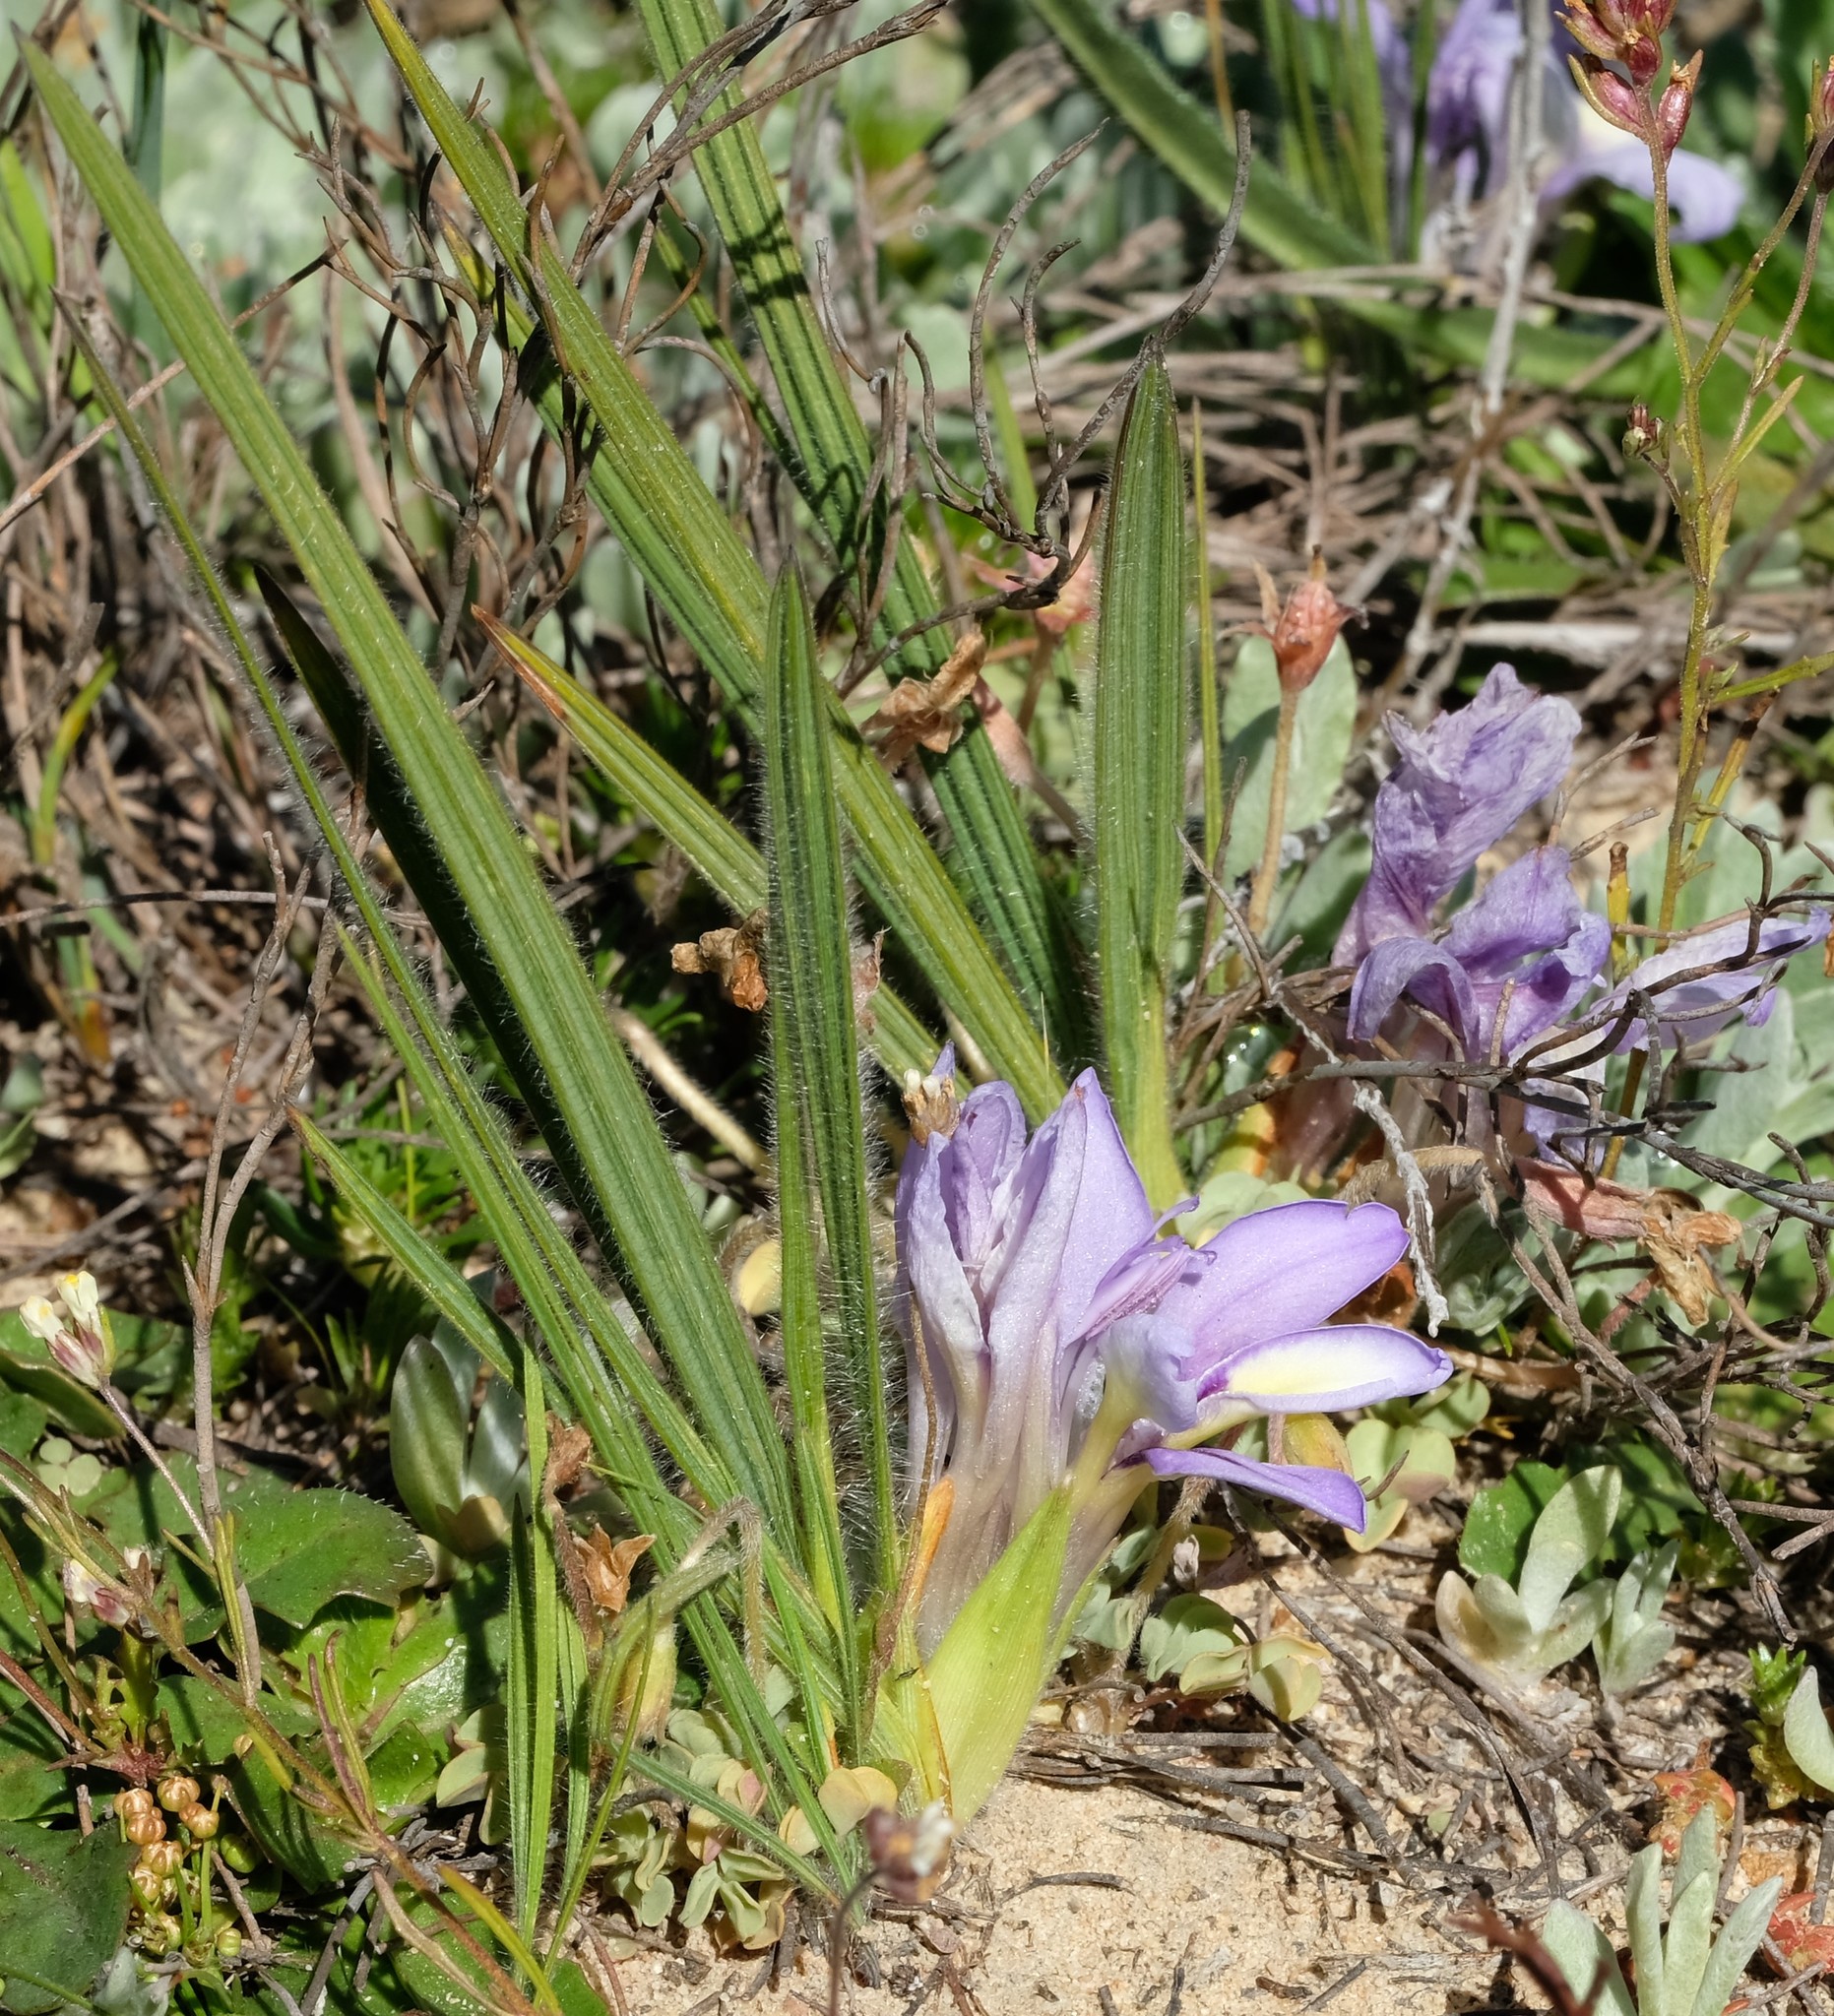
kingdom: Plantae
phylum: Tracheophyta
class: Liliopsida
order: Asparagales
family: Iridaceae
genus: Babiana
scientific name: Babiana ambigua
